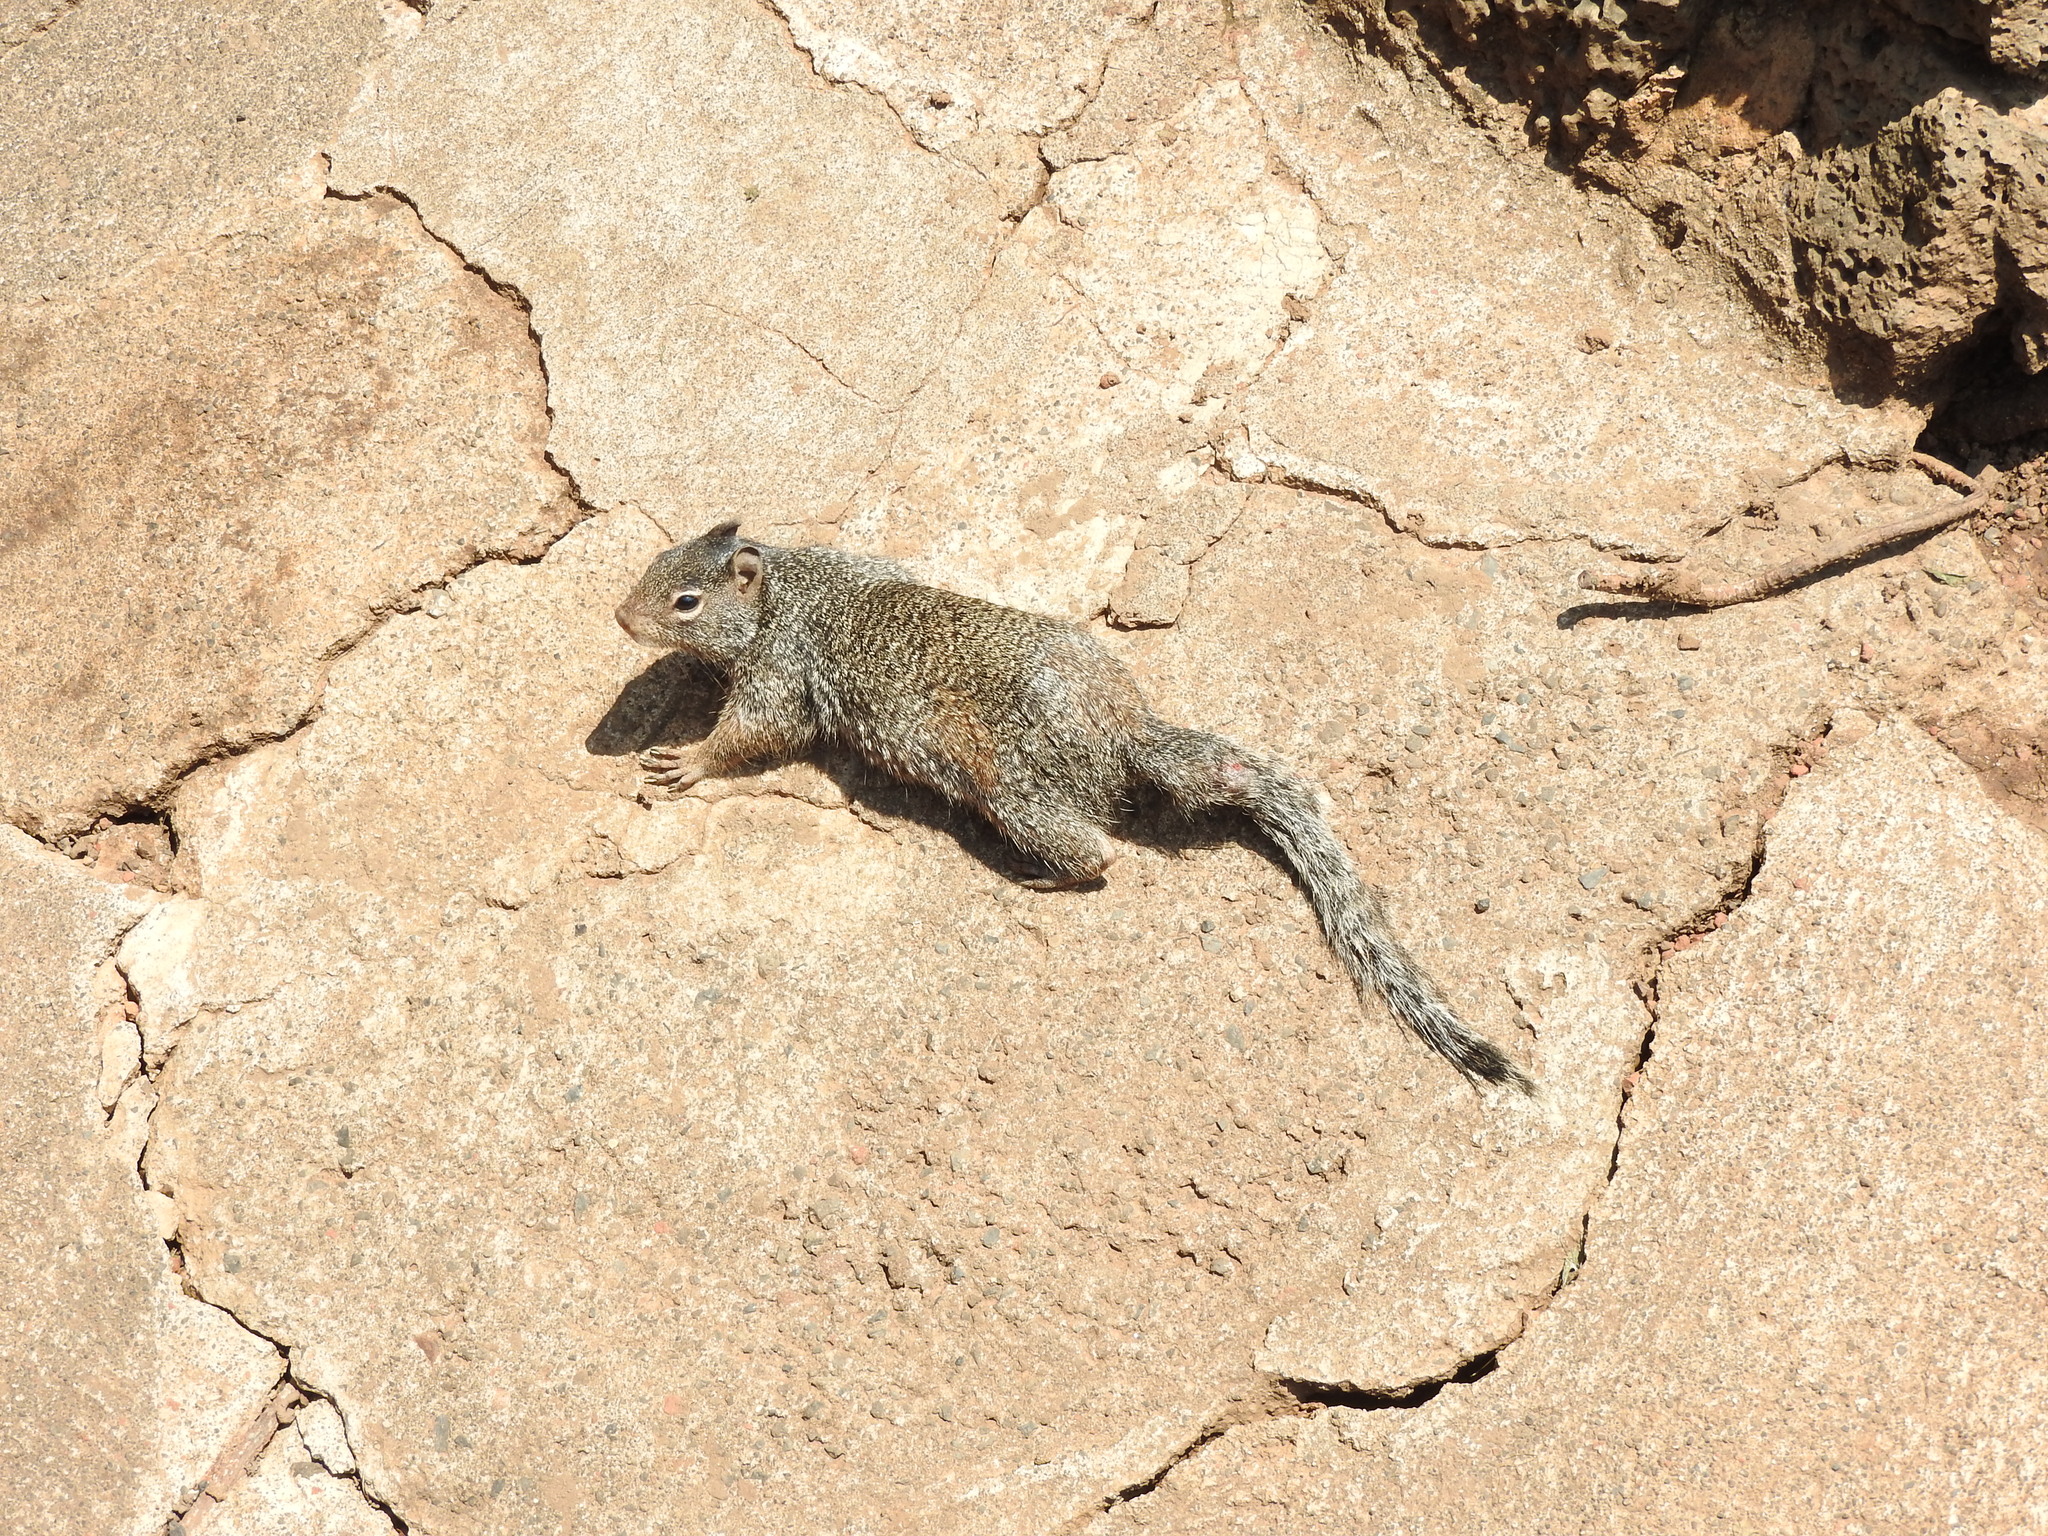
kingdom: Animalia
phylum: Chordata
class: Mammalia
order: Rodentia
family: Sciuridae
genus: Otospermophilus
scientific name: Otospermophilus variegatus
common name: Rock squirrel
